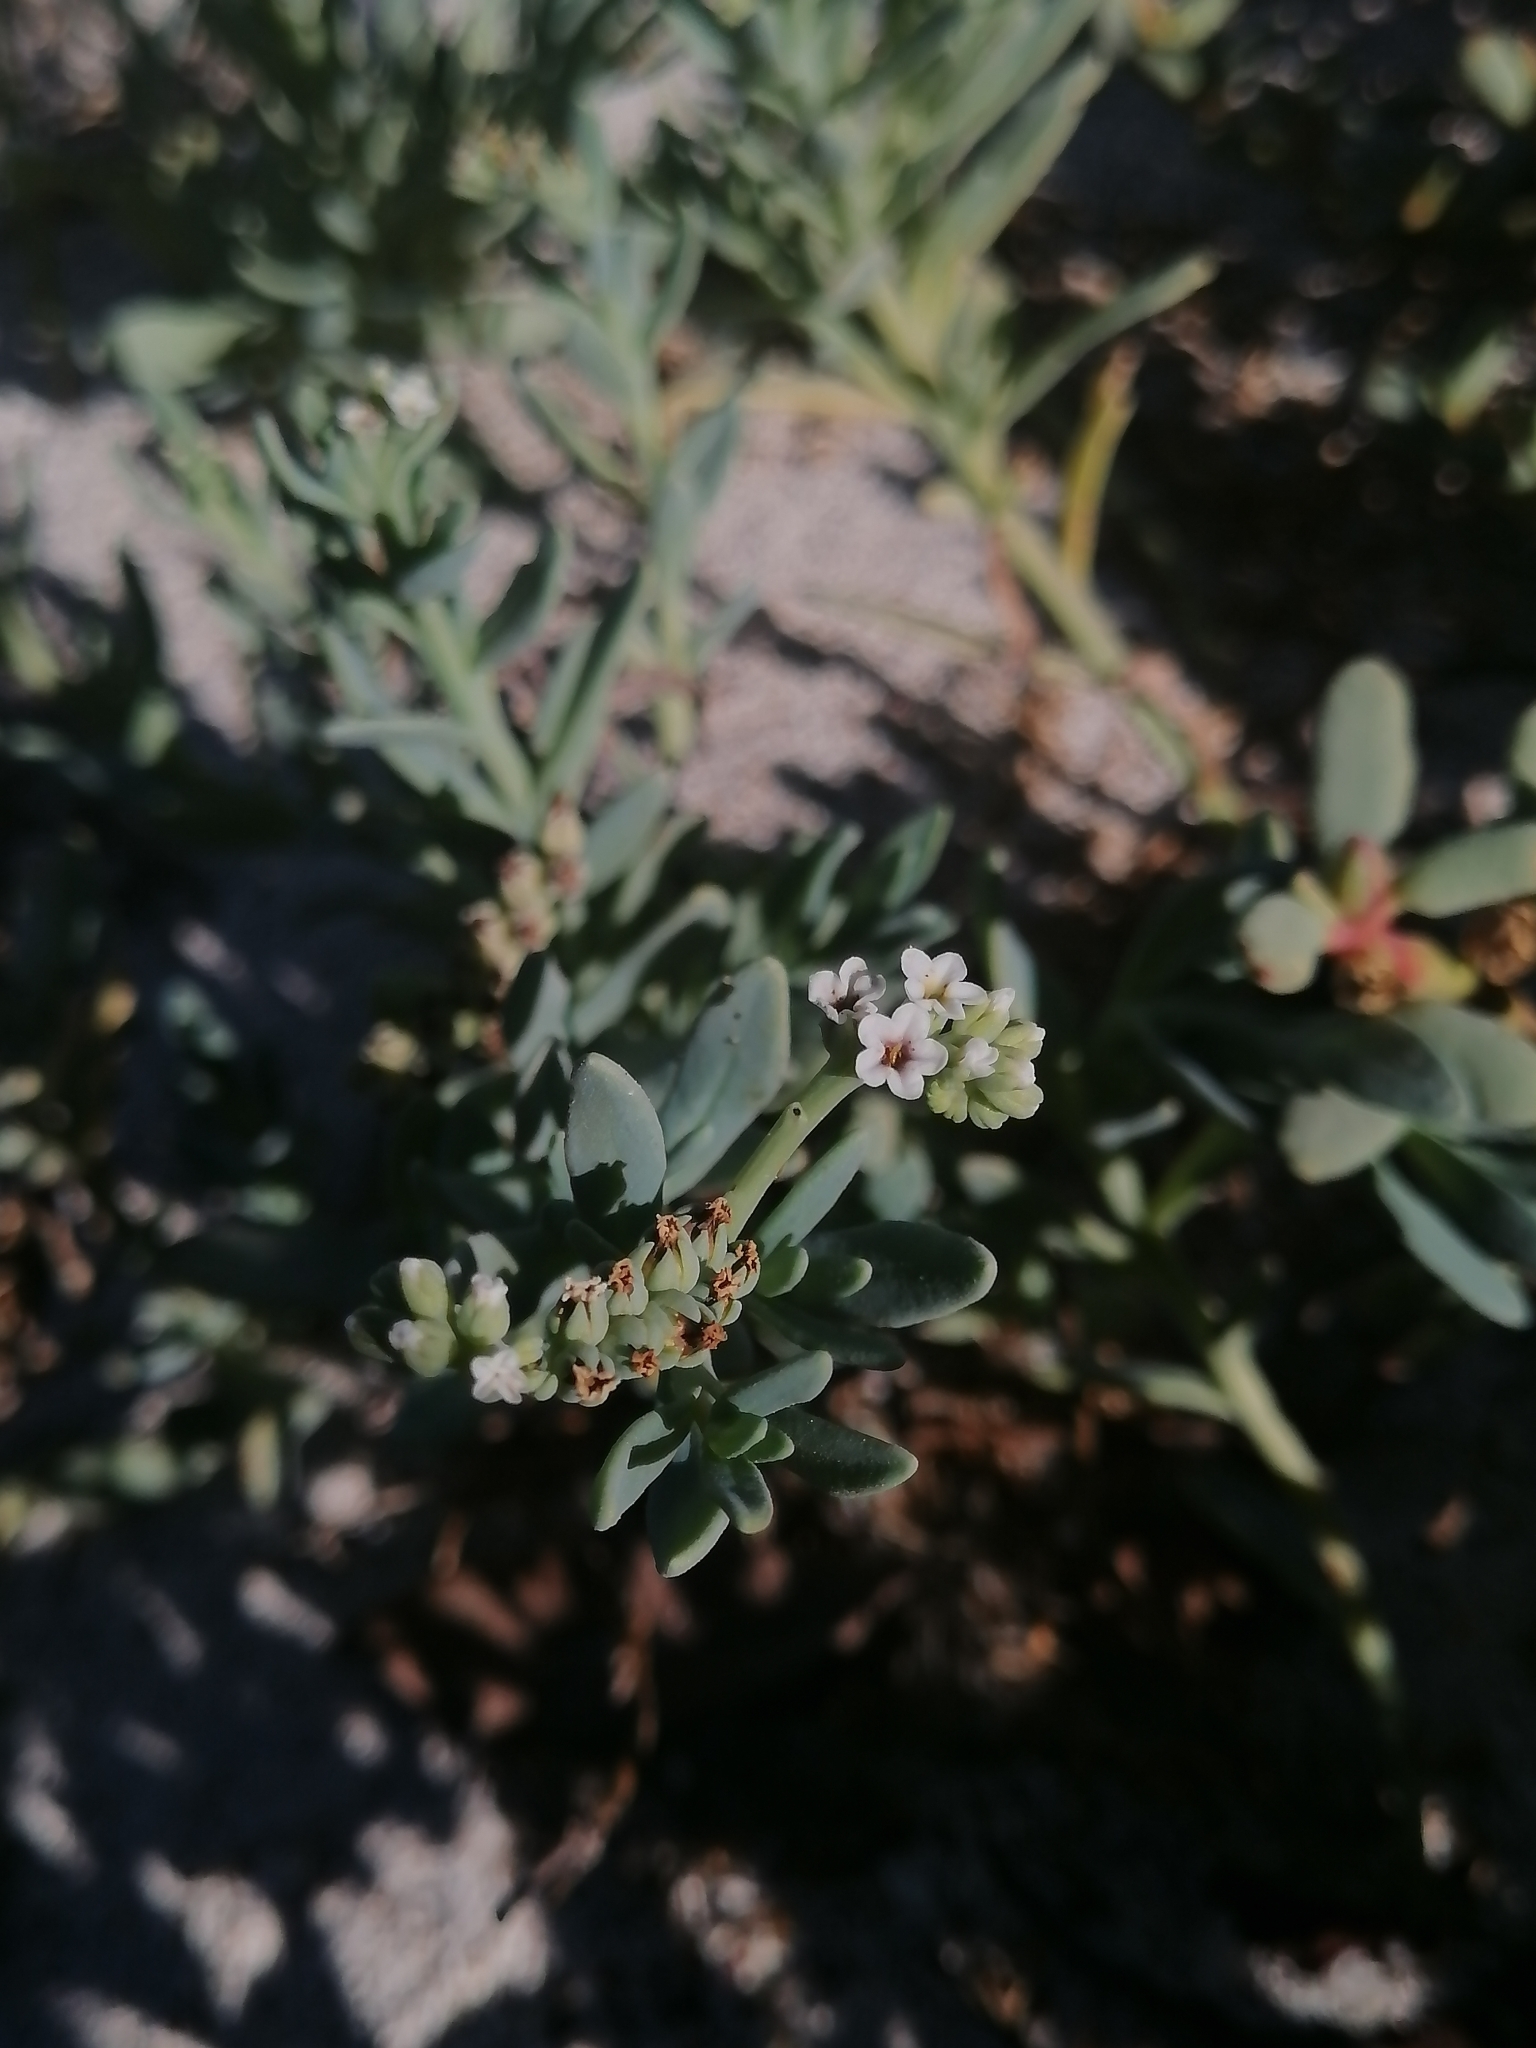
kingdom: Plantae
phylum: Tracheophyta
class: Magnoliopsida
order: Boraginales
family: Heliotropiaceae
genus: Heliotropium
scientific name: Heliotropium curassavicum
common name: Seaside heliotrope
